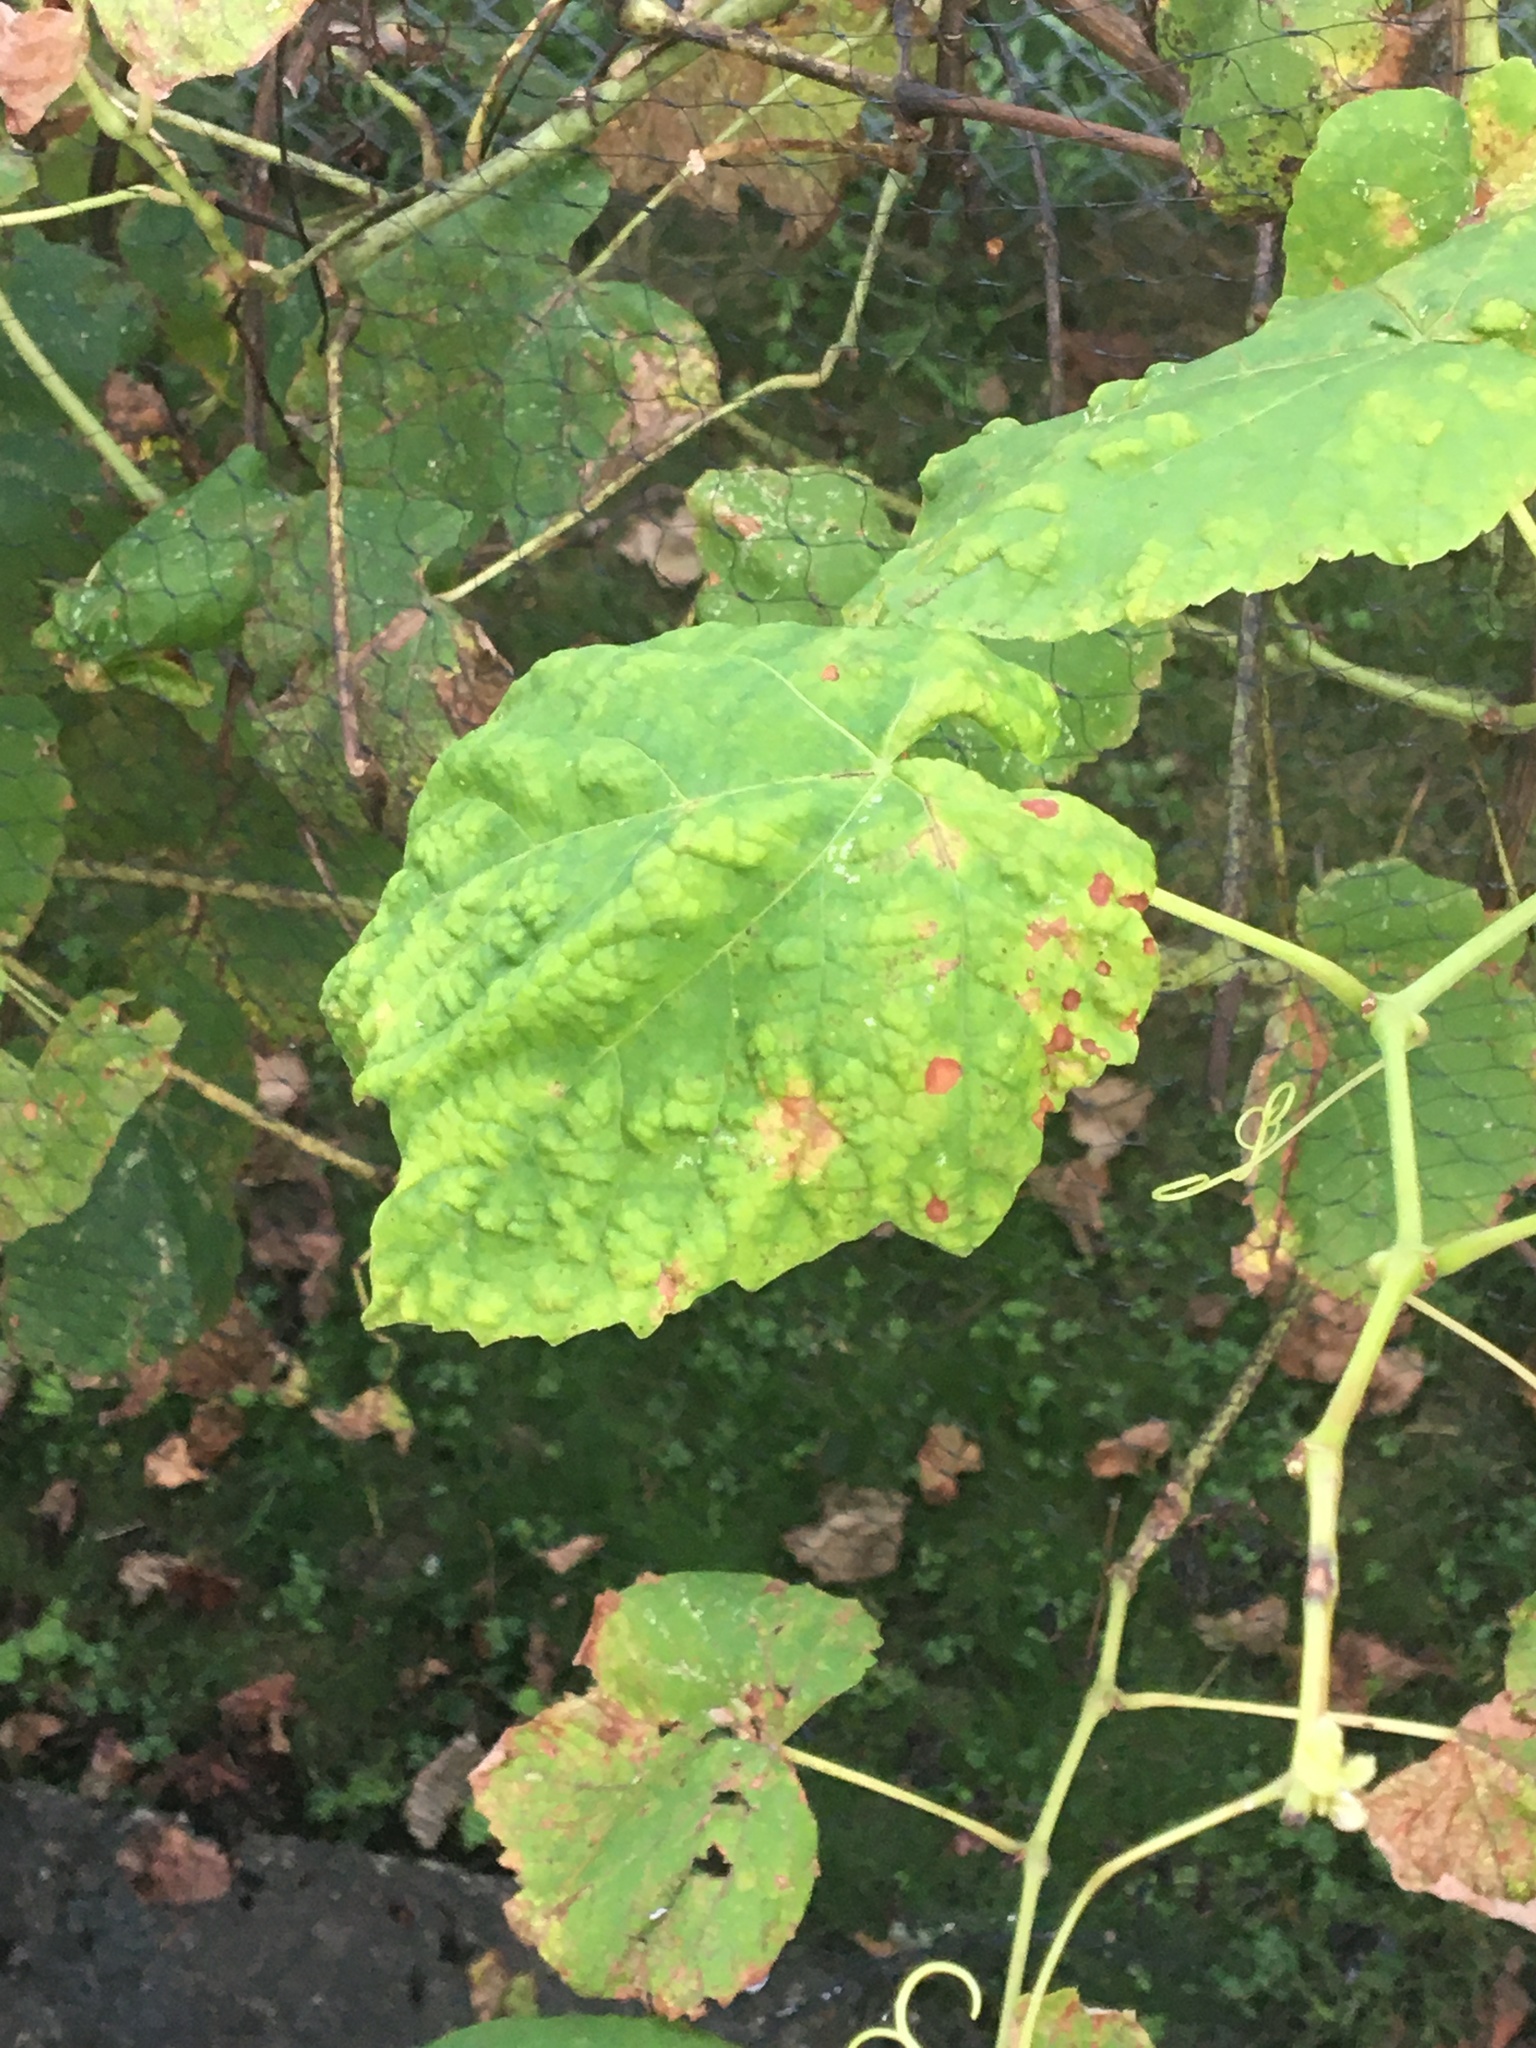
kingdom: Animalia
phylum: Arthropoda
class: Arachnida
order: Trombidiformes
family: Eriophyidae
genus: Colomerus
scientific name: Colomerus vitis
